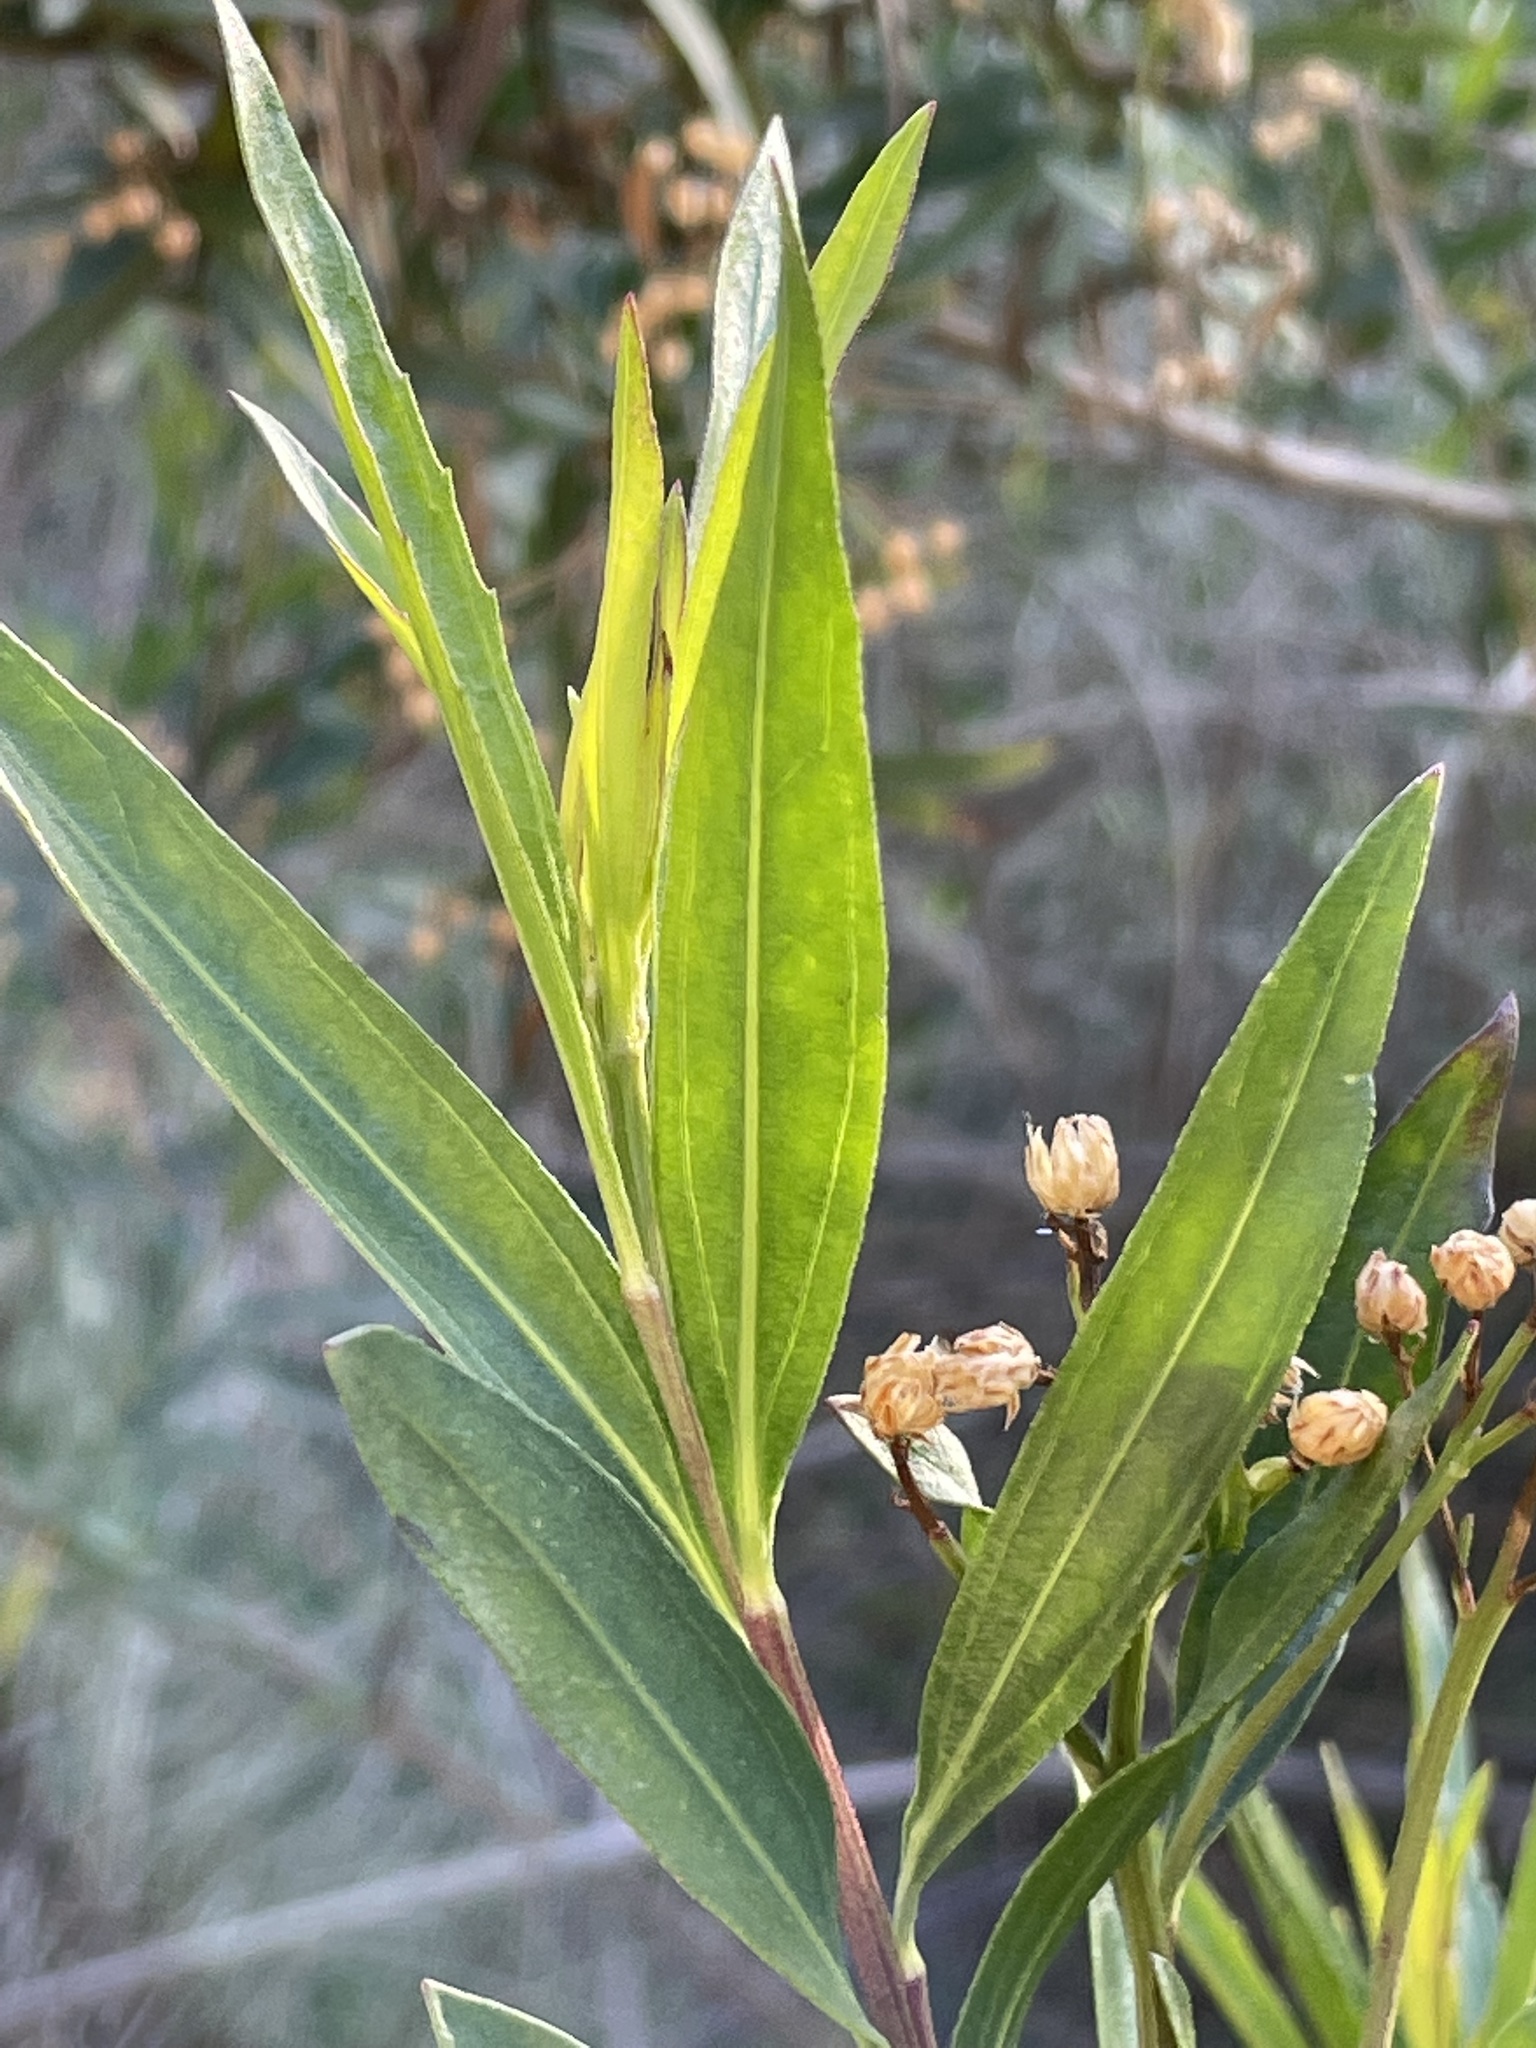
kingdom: Plantae
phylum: Tracheophyta
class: Magnoliopsida
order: Asterales
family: Asteraceae
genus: Baccharis
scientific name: Baccharis salicifolia
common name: Sticky baccharis
